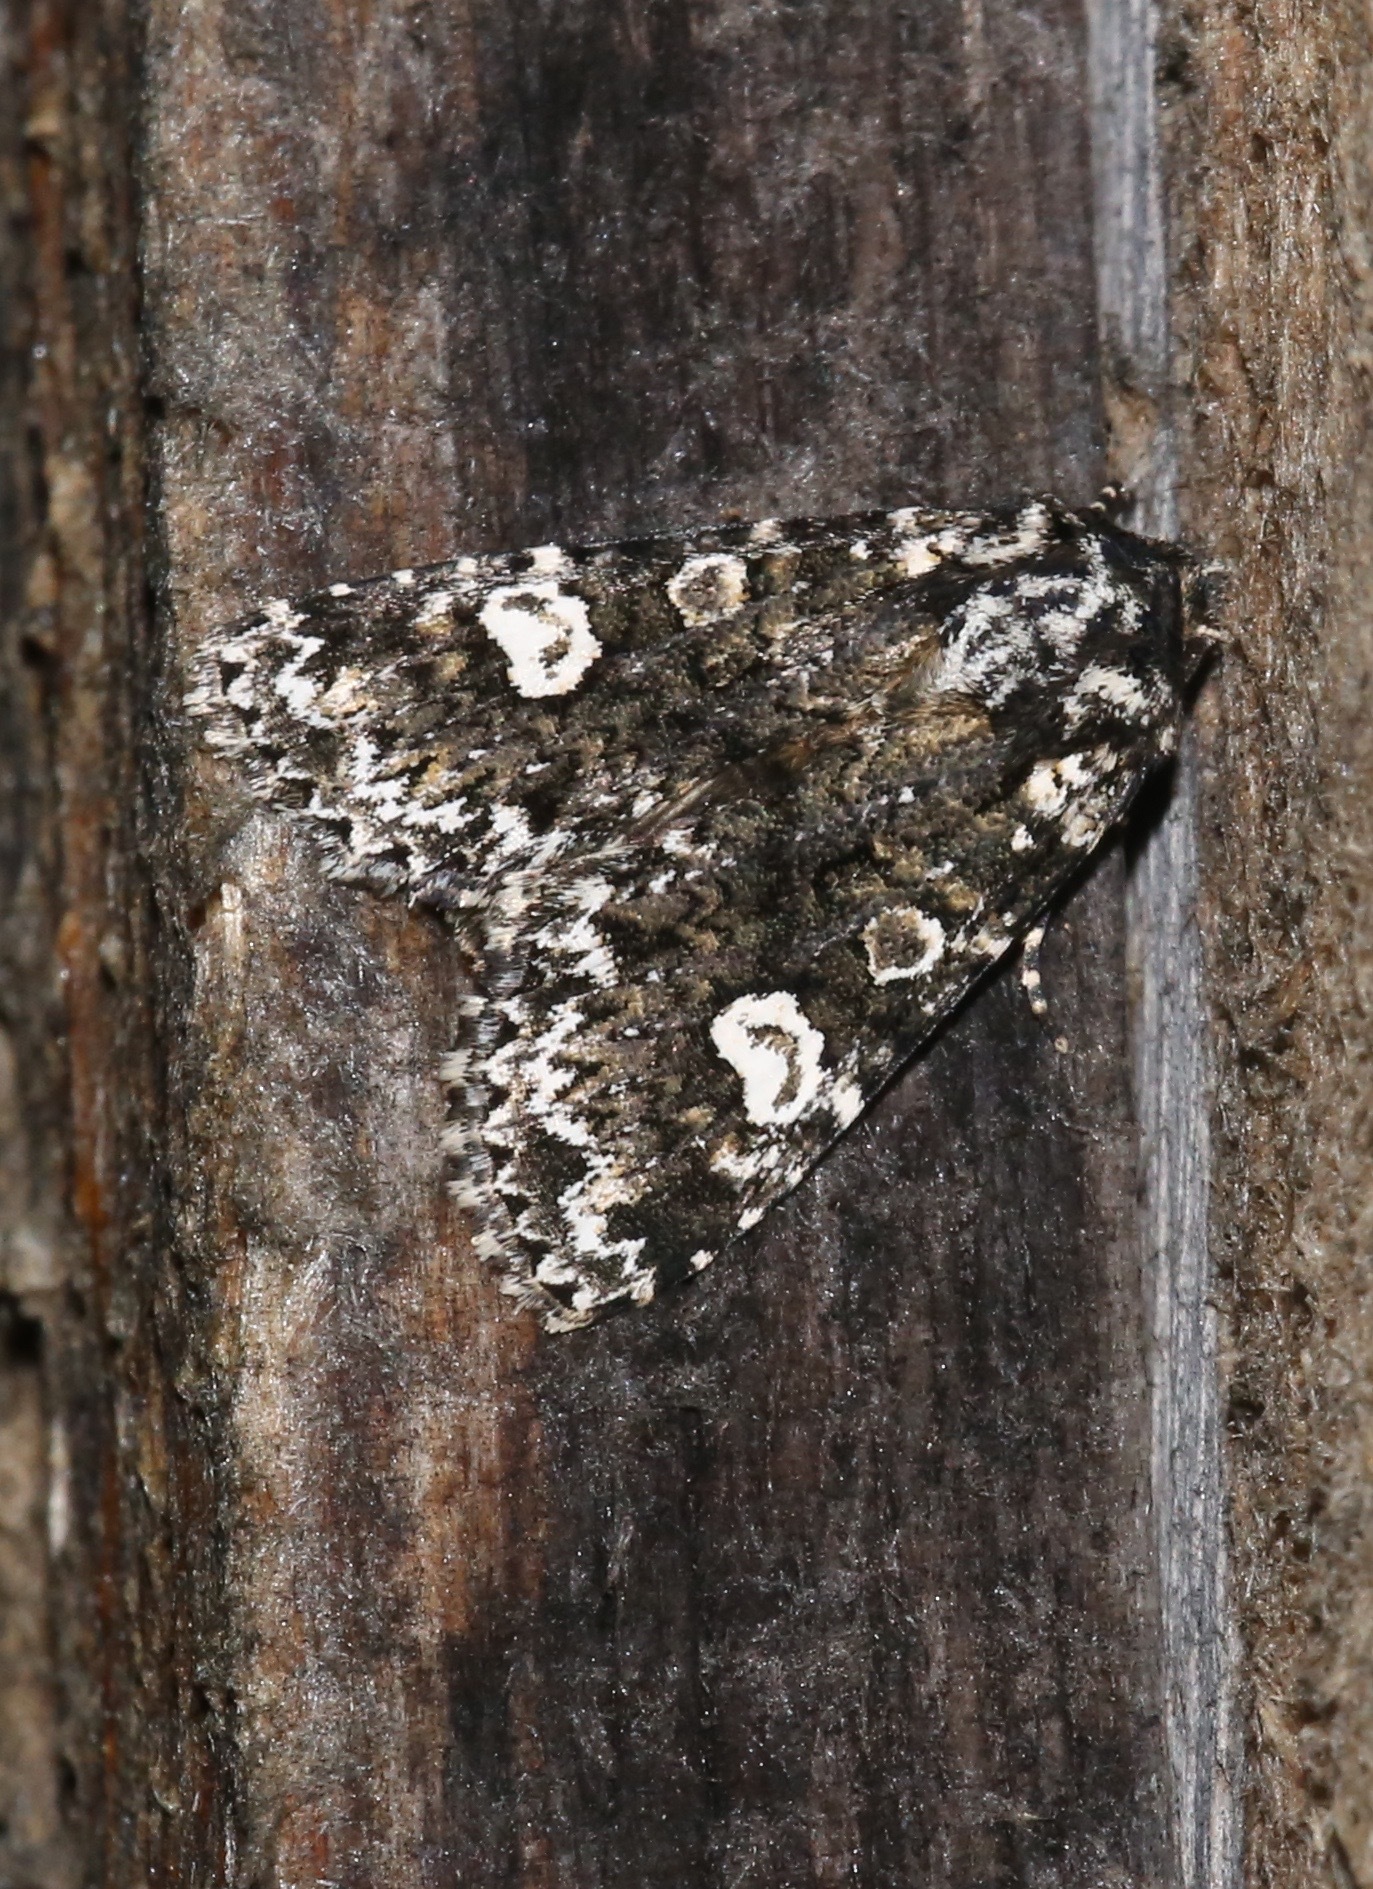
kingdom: Animalia
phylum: Arthropoda
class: Insecta
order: Lepidoptera
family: Noctuidae
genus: Melanchra
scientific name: Melanchra adjuncta
